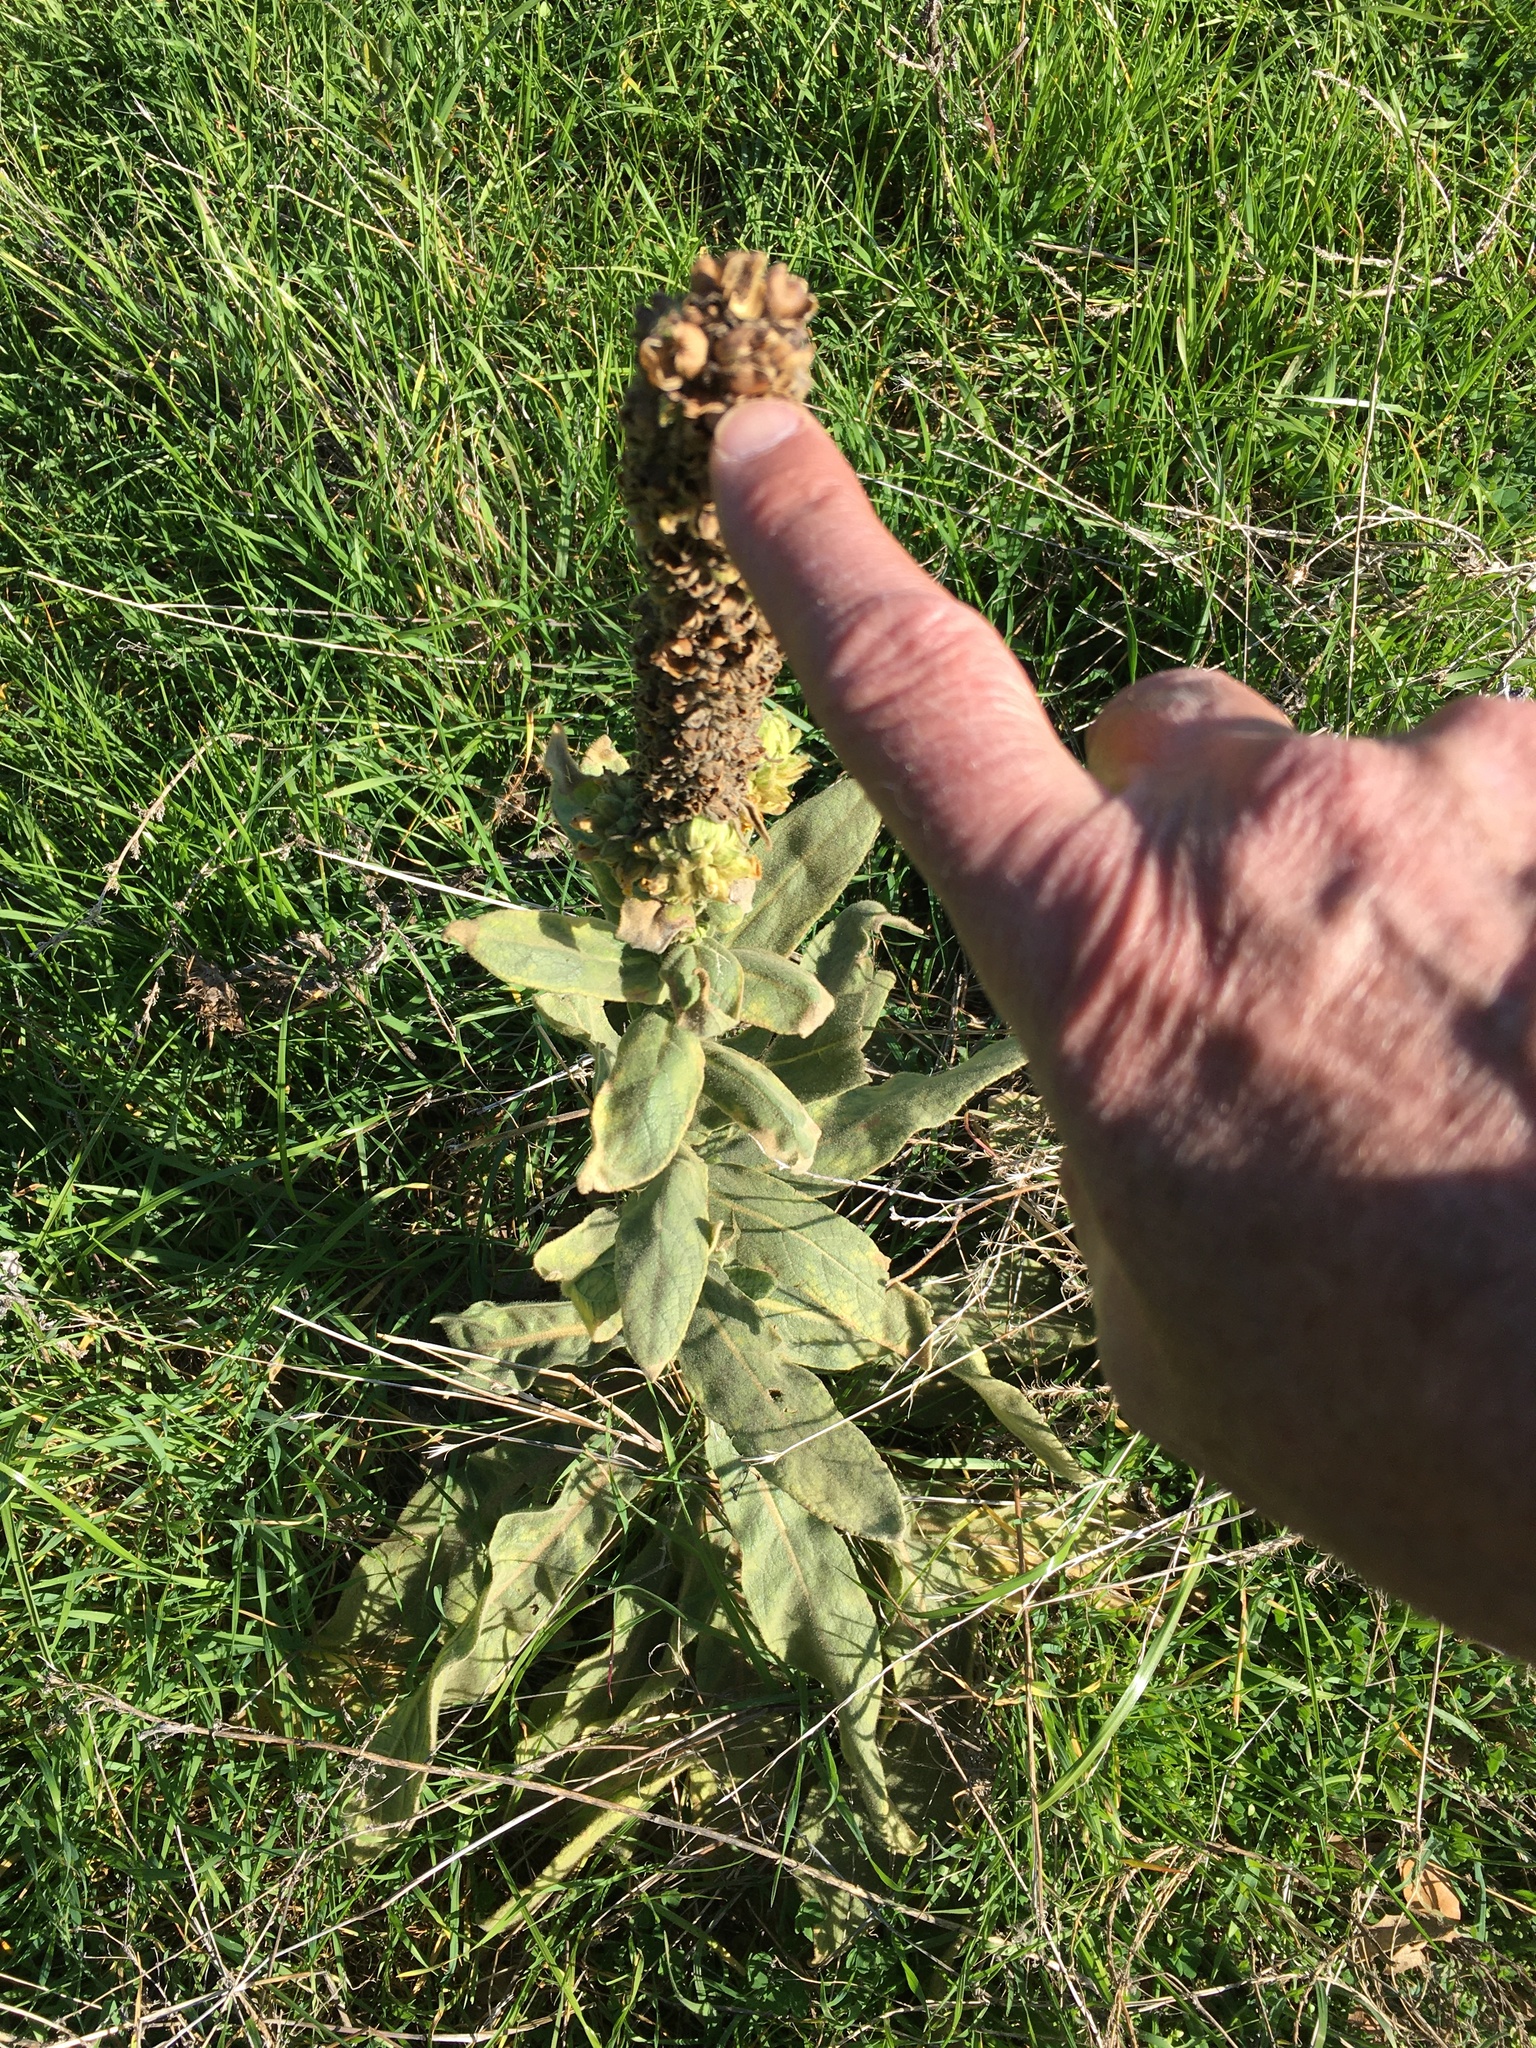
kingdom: Plantae
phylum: Tracheophyta
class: Magnoliopsida
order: Lamiales
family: Scrophulariaceae
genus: Verbascum
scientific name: Verbascum thapsus
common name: Common mullein
